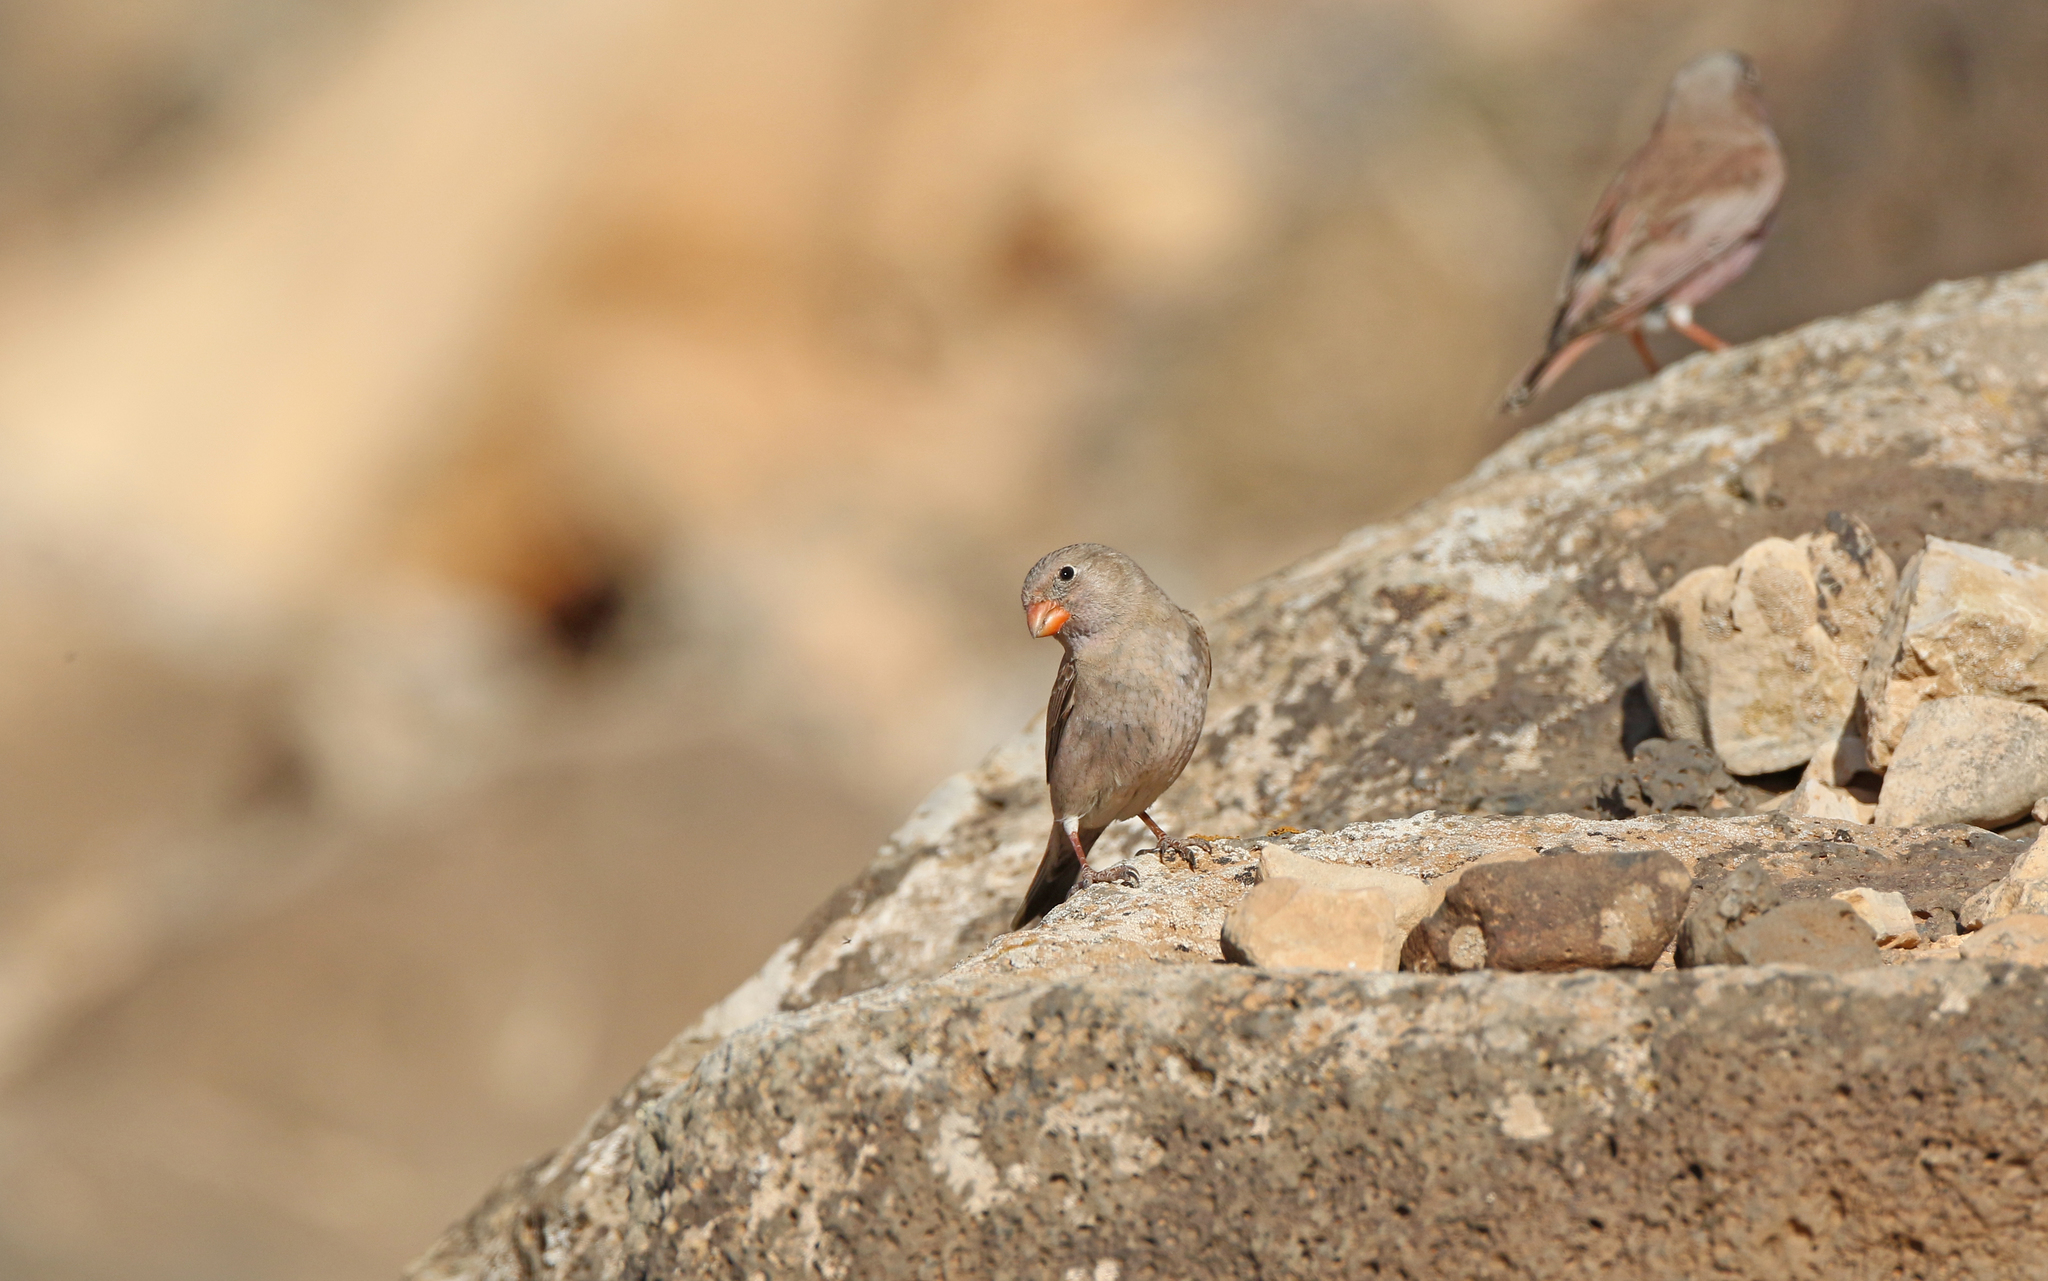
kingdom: Animalia
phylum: Chordata
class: Aves
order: Passeriformes
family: Fringillidae
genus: Bucanetes
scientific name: Bucanetes githagineus
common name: Trumpeter finch
